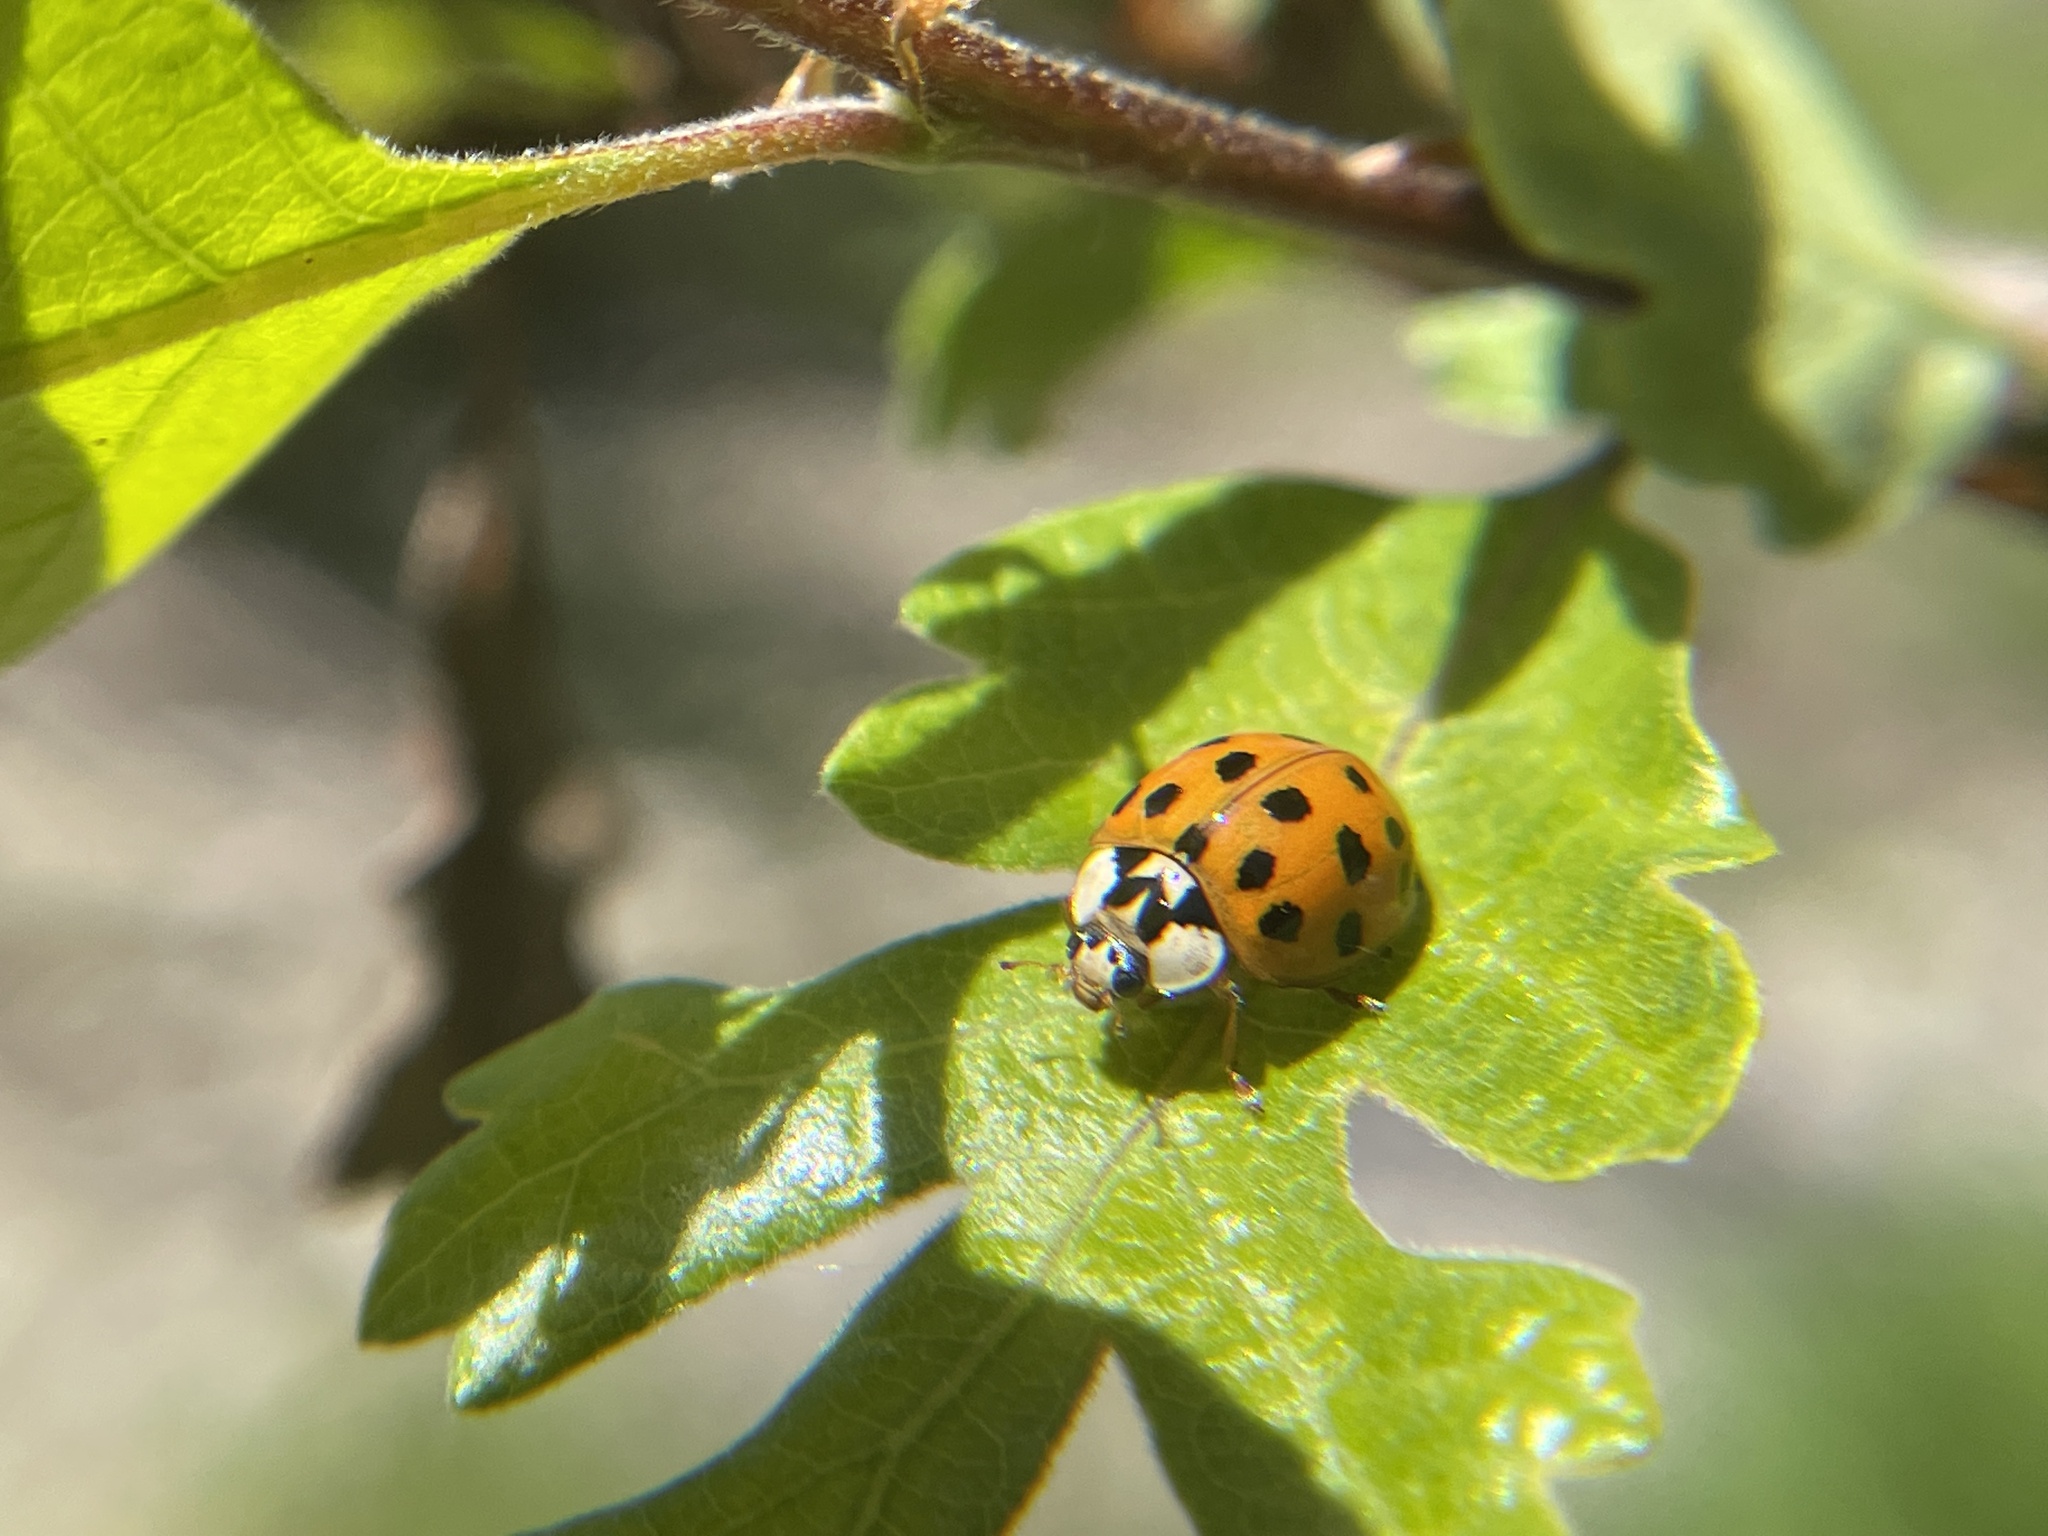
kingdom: Animalia
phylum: Arthropoda
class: Insecta
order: Coleoptera
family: Coccinellidae
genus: Harmonia
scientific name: Harmonia axyridis
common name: Harlequin ladybird
